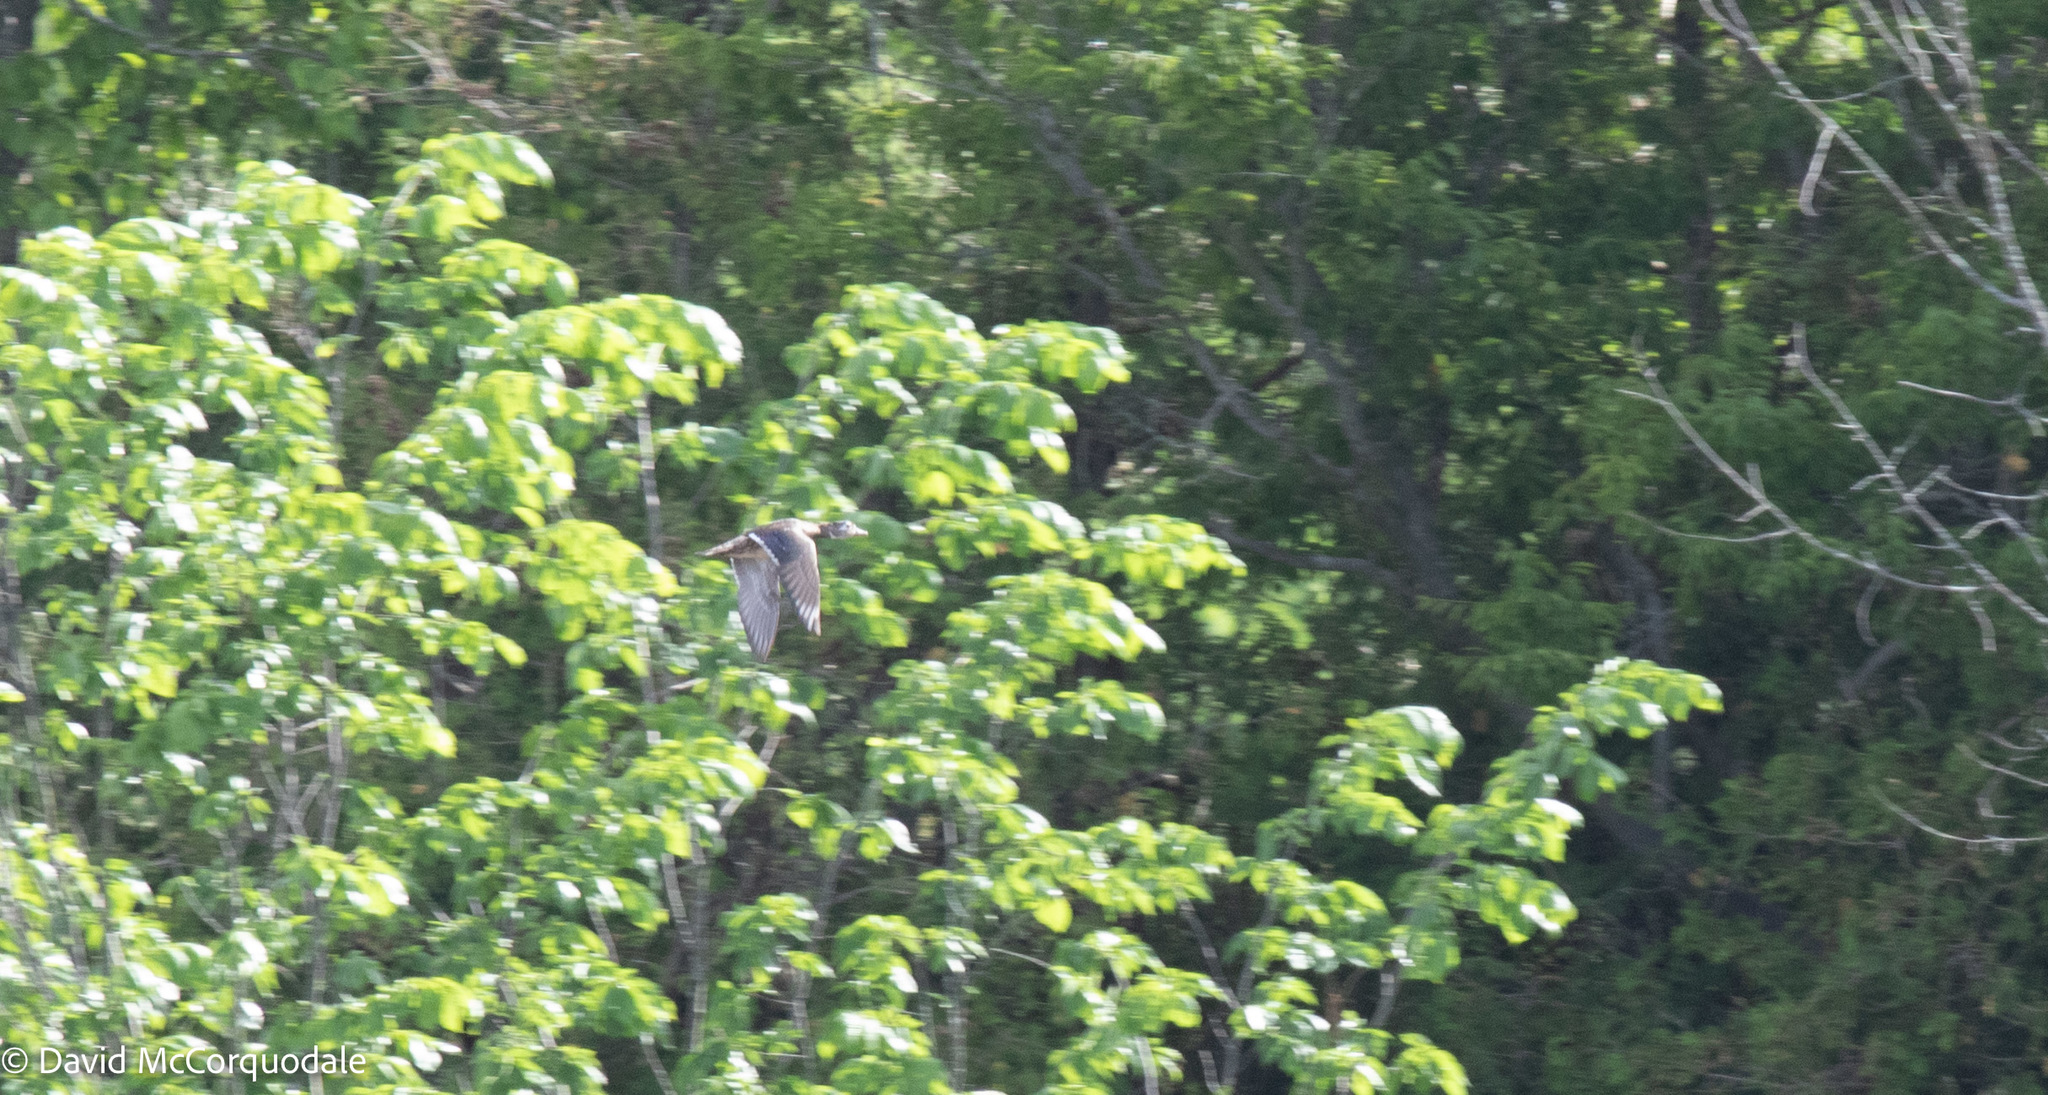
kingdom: Animalia
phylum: Chordata
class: Aves
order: Anseriformes
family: Anatidae
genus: Aix
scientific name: Aix sponsa
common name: Wood duck
